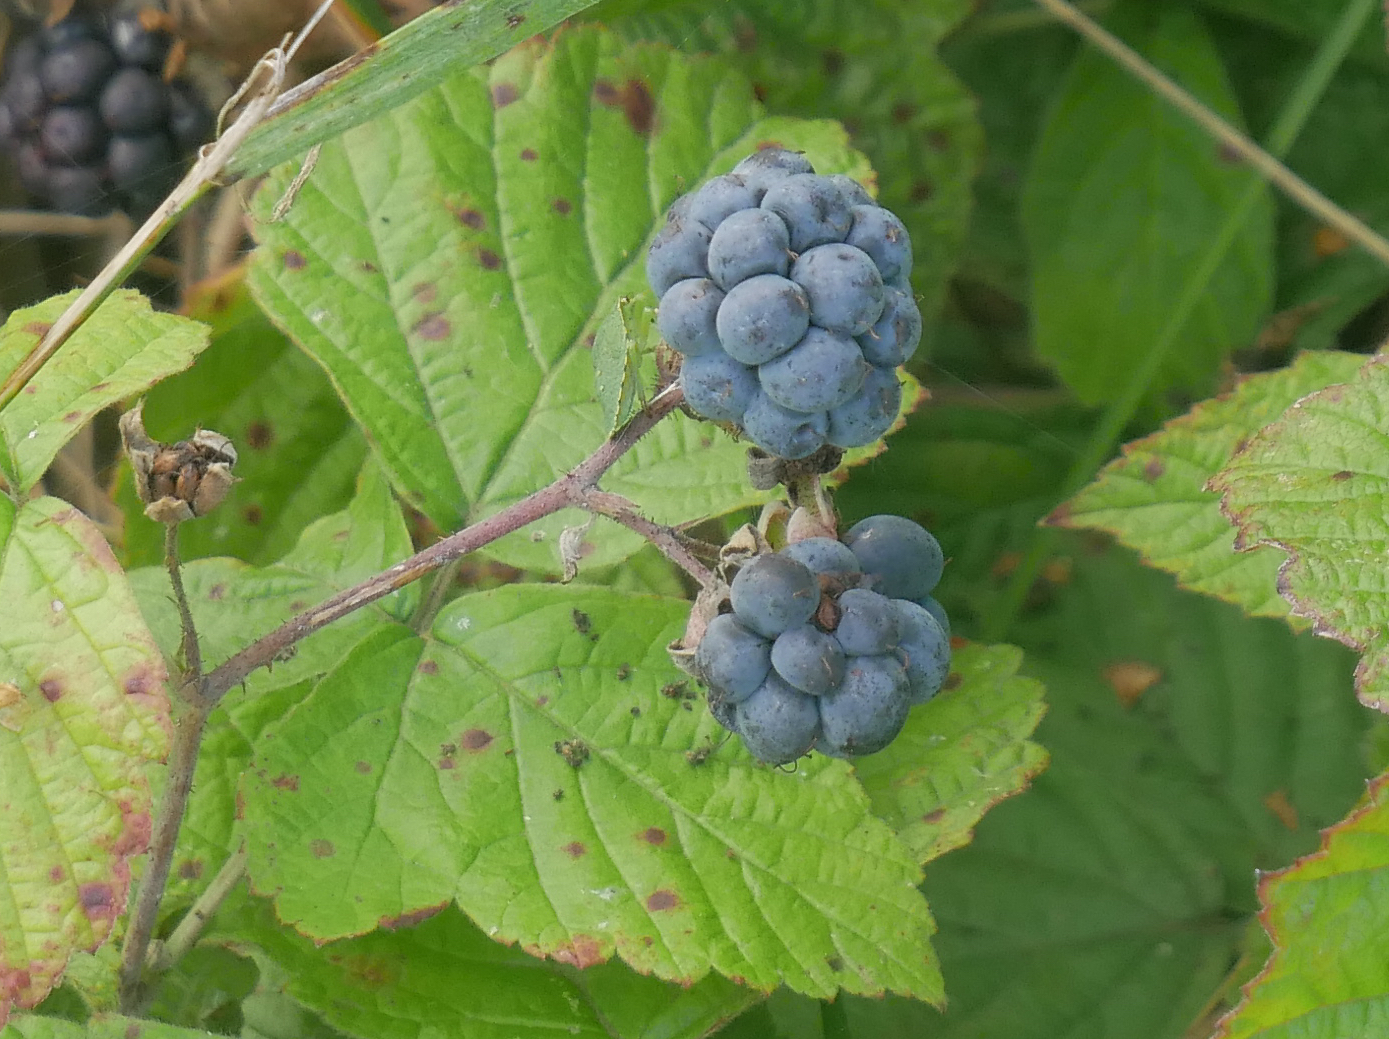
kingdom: Plantae
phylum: Tracheophyta
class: Magnoliopsida
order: Rosales
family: Rosaceae
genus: Rubus
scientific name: Rubus caesius
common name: Dewberry
